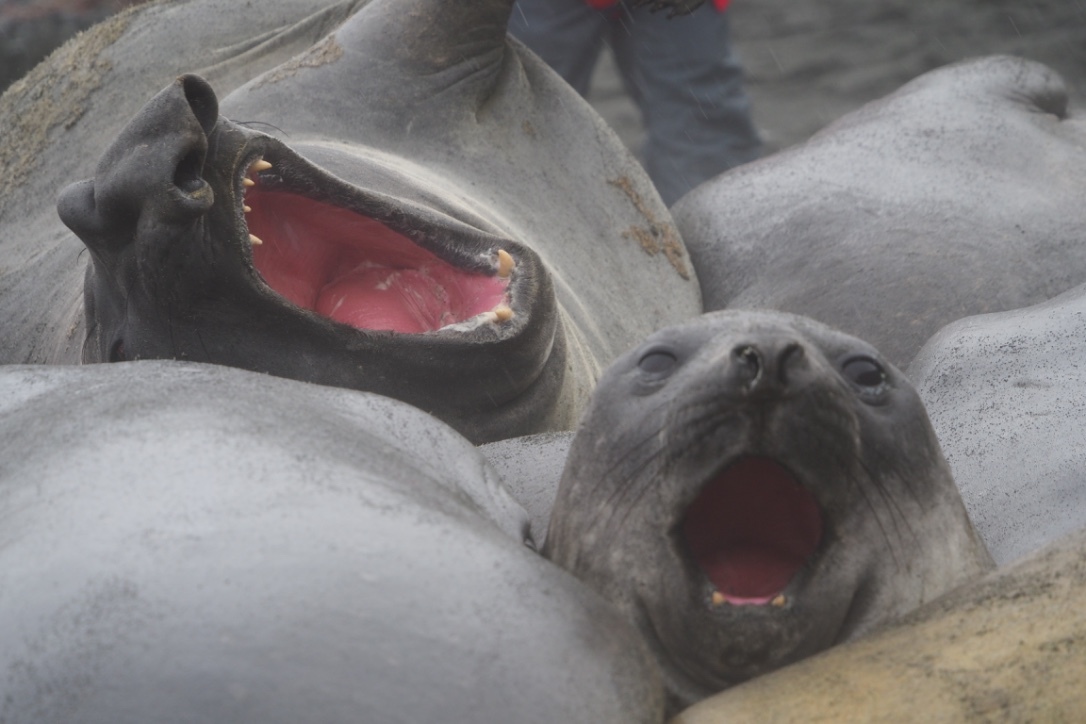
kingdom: Animalia
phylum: Chordata
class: Mammalia
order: Carnivora
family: Phocidae
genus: Mirounga
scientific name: Mirounga leonina
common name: Southern elephant seal
